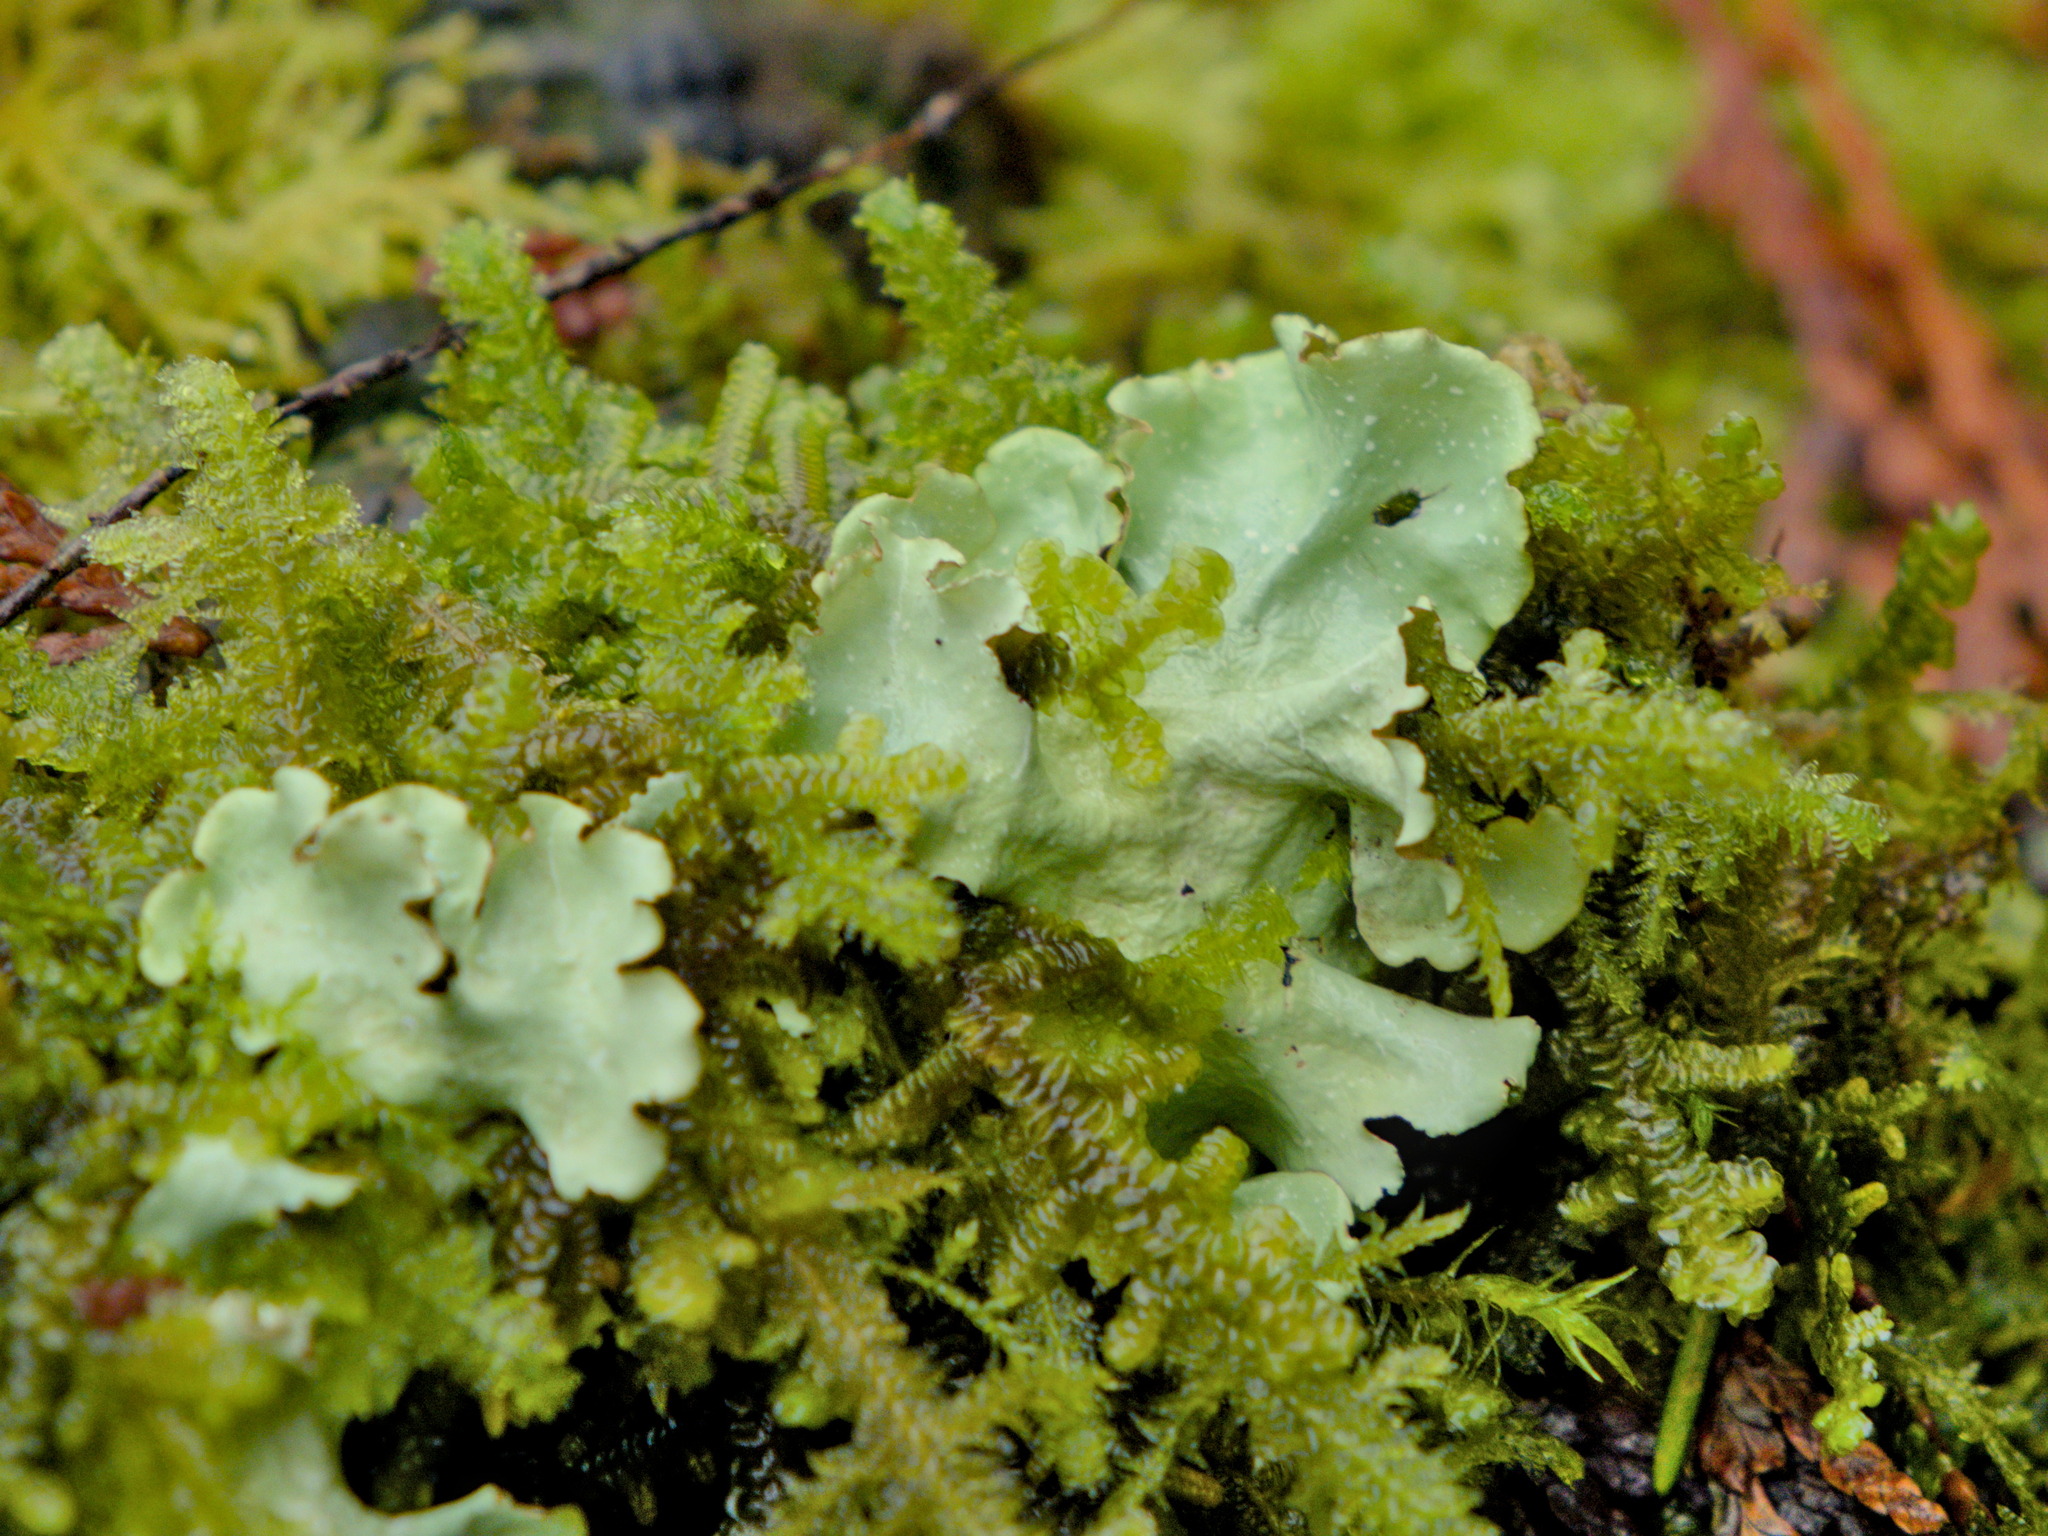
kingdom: Fungi
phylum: Ascomycota
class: Lecanoromycetes
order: Lecanorales
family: Parmeliaceae
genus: Cetrelia
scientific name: Cetrelia cetrarioides
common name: Speckled iceland lichen
